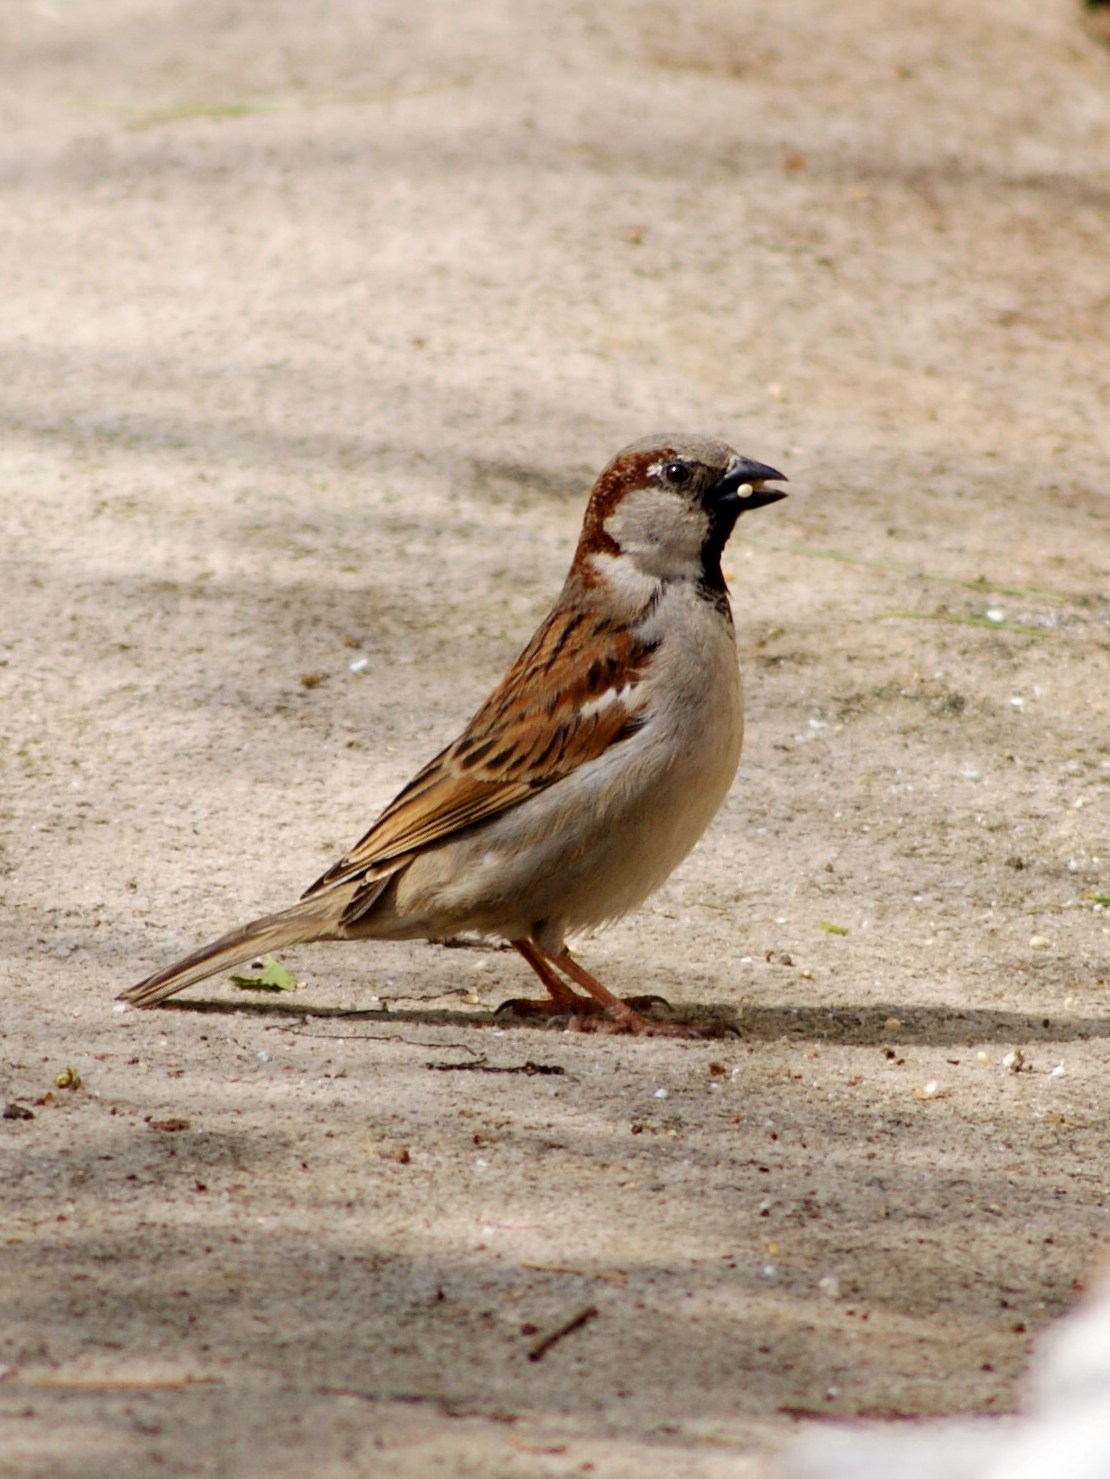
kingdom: Animalia
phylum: Chordata
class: Aves
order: Passeriformes
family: Passeridae
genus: Passer
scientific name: Passer domesticus
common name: House sparrow
